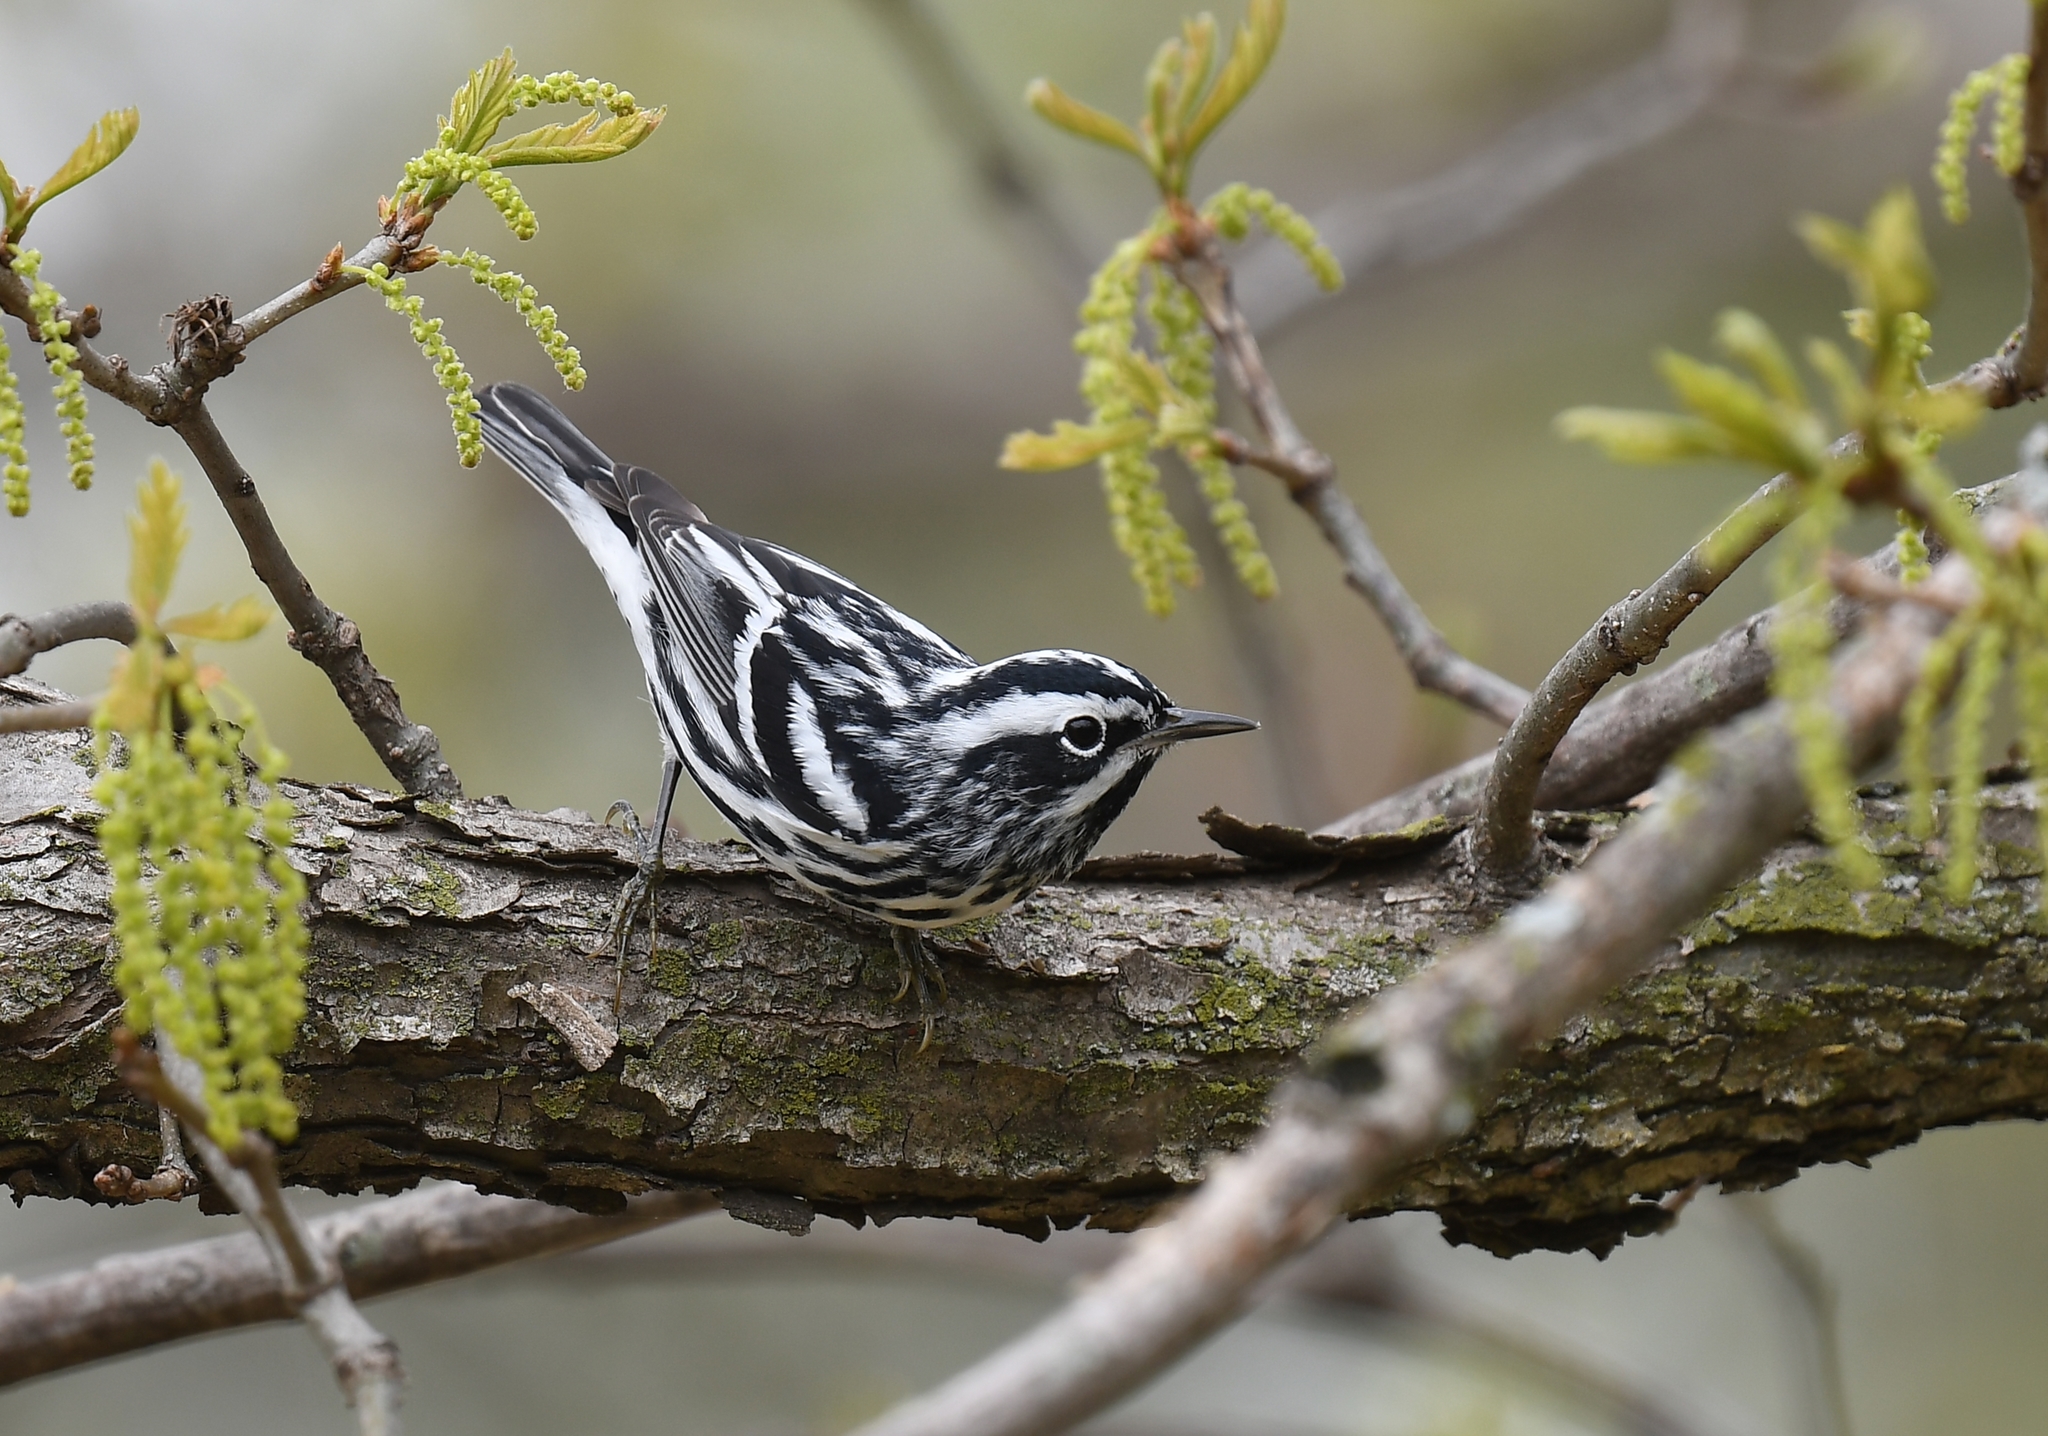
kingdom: Animalia
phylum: Chordata
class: Aves
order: Passeriformes
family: Parulidae
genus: Mniotilta
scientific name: Mniotilta varia
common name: Black-and-white warbler
